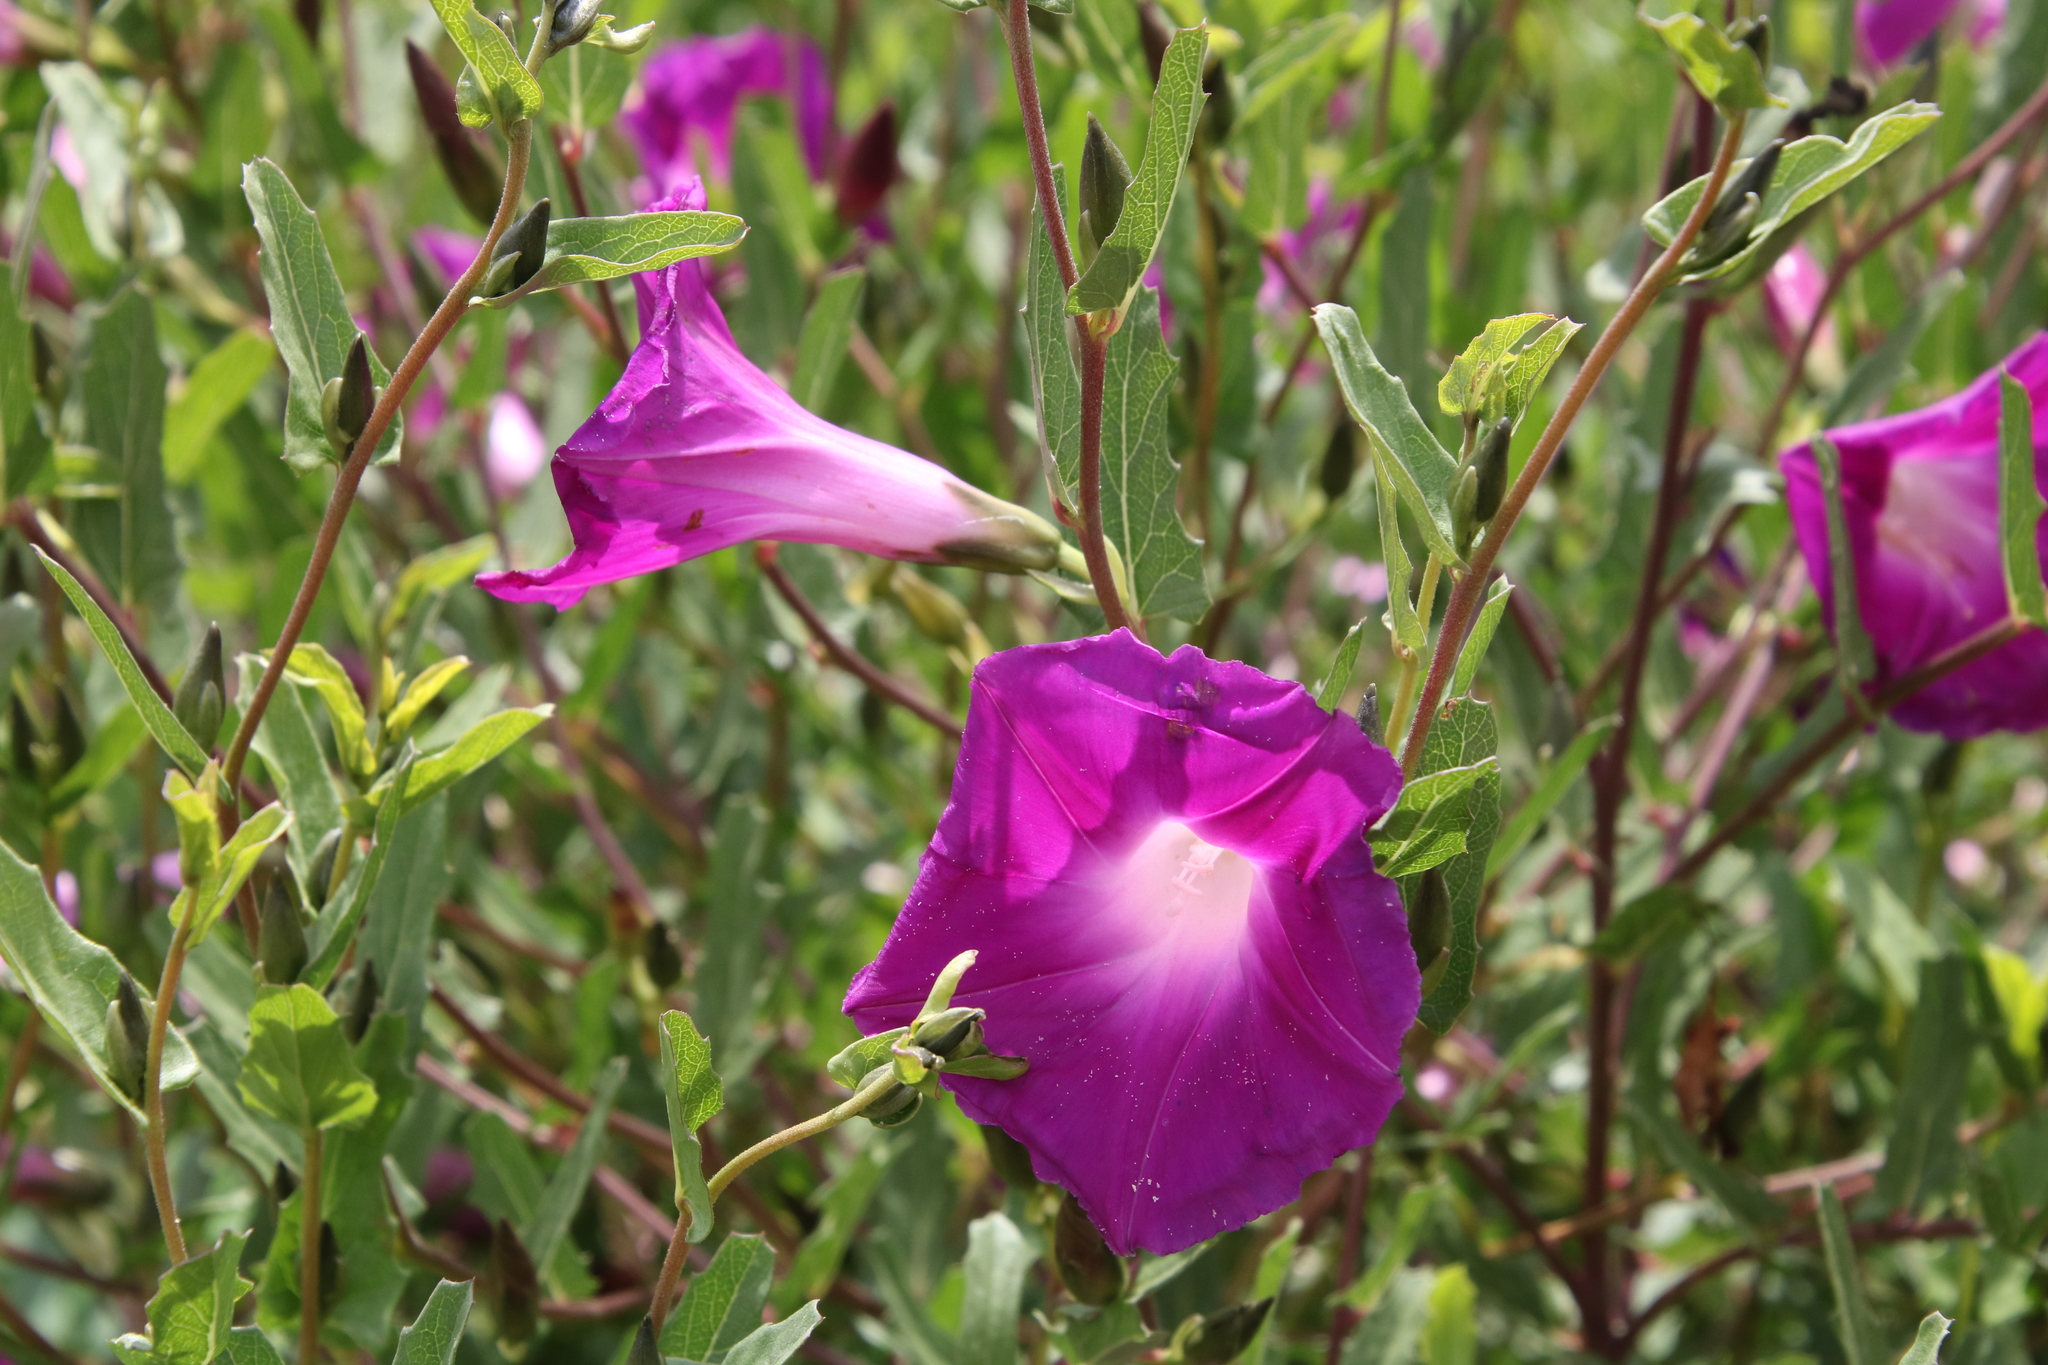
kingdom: Plantae
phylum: Tracheophyta
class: Magnoliopsida
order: Solanales
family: Convolvulaceae
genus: Ipomoea
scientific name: Ipomoea stans
